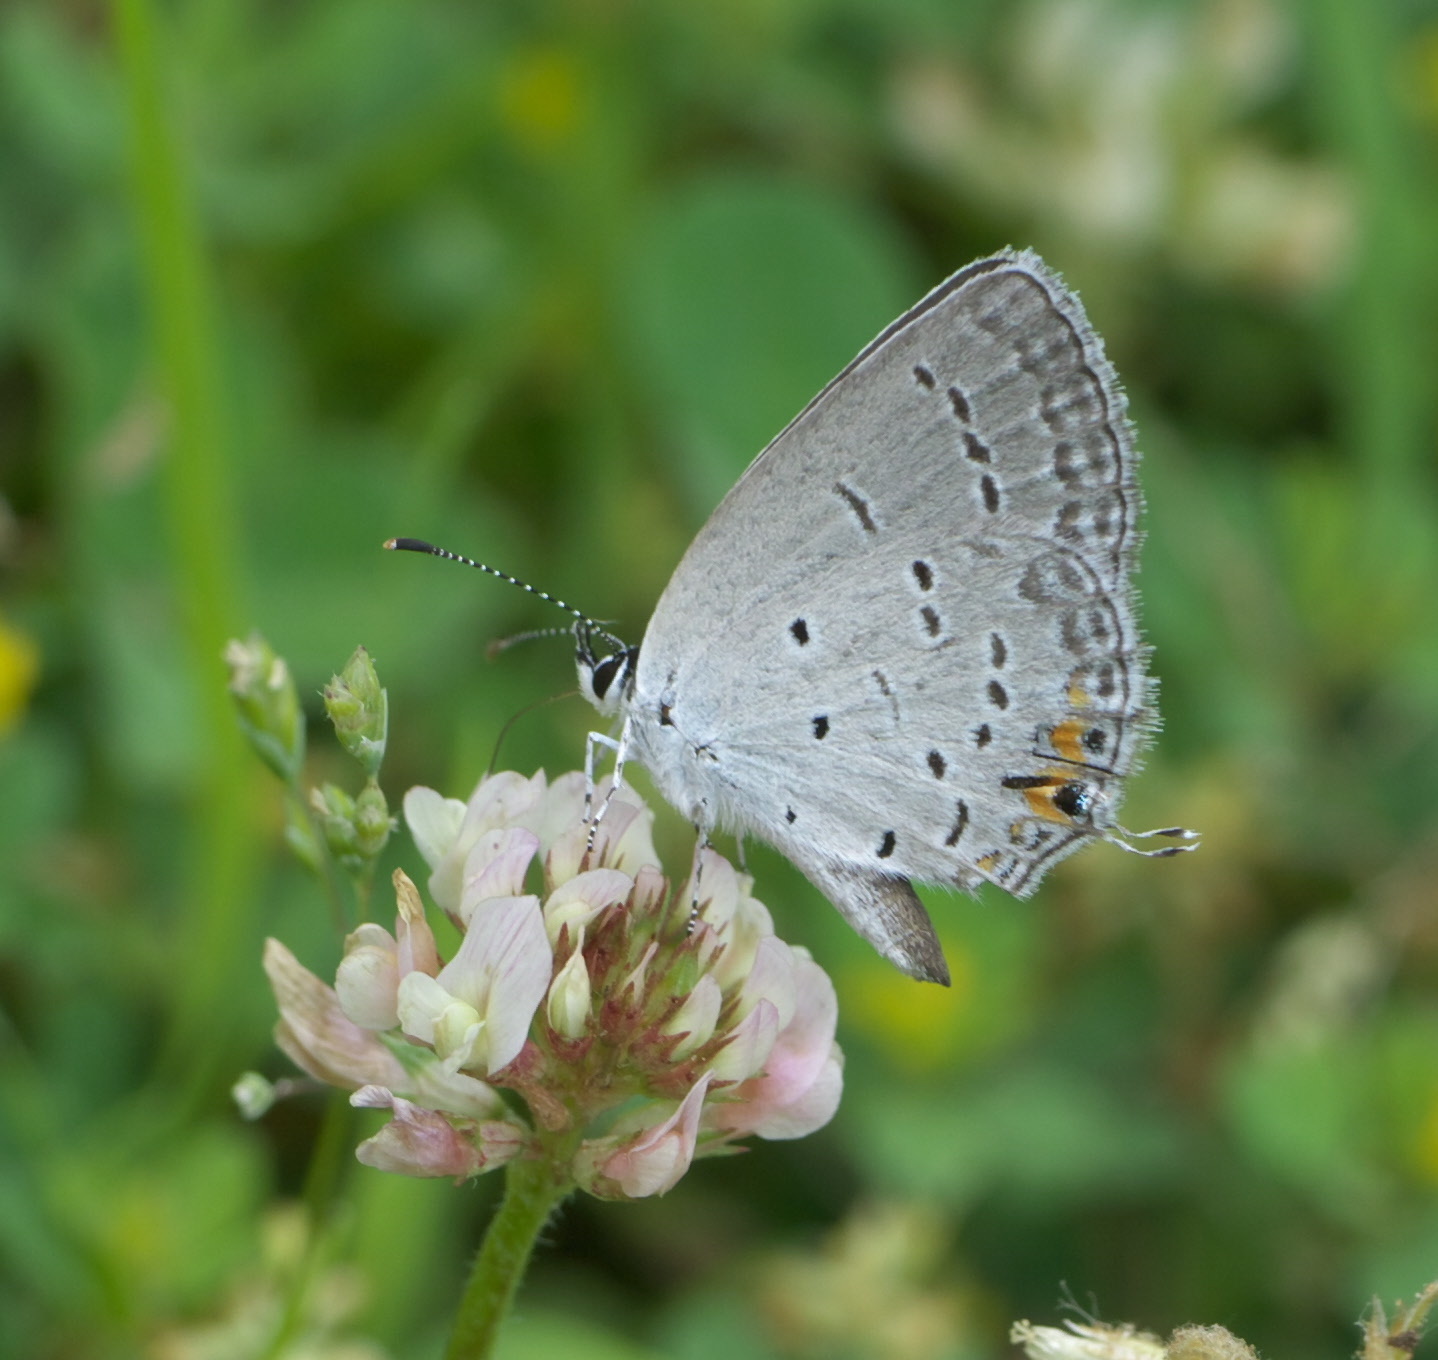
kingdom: Animalia
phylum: Arthropoda
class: Insecta
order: Lepidoptera
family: Lycaenidae
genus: Elkalyce
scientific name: Elkalyce comyntas
